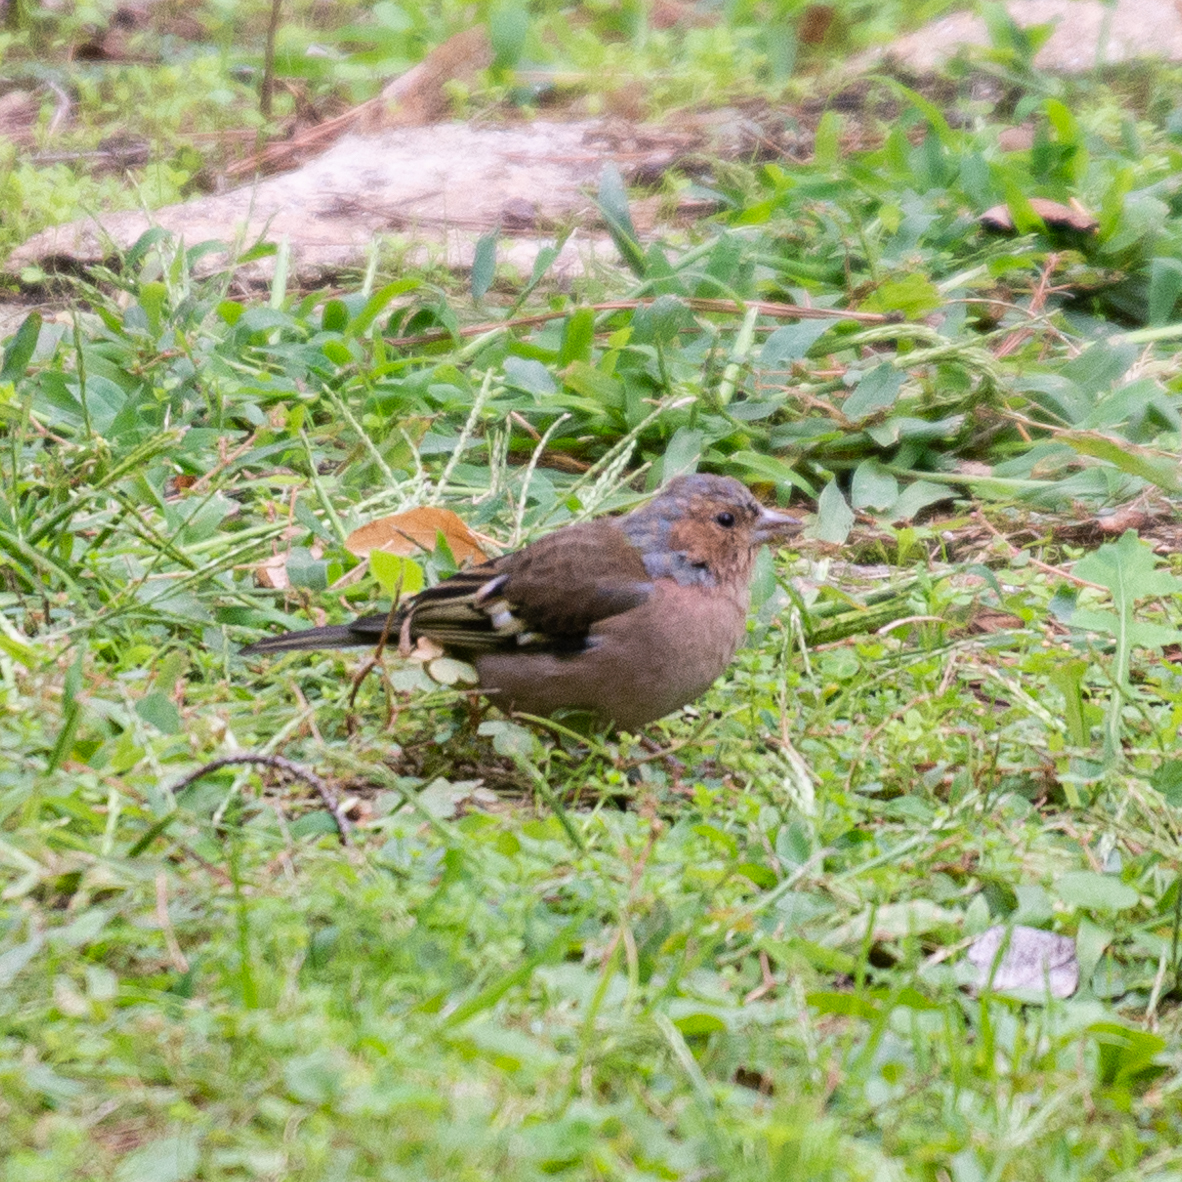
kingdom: Animalia
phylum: Chordata
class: Aves
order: Passeriformes
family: Fringillidae
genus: Fringilla
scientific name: Fringilla coelebs
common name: Common chaffinch
